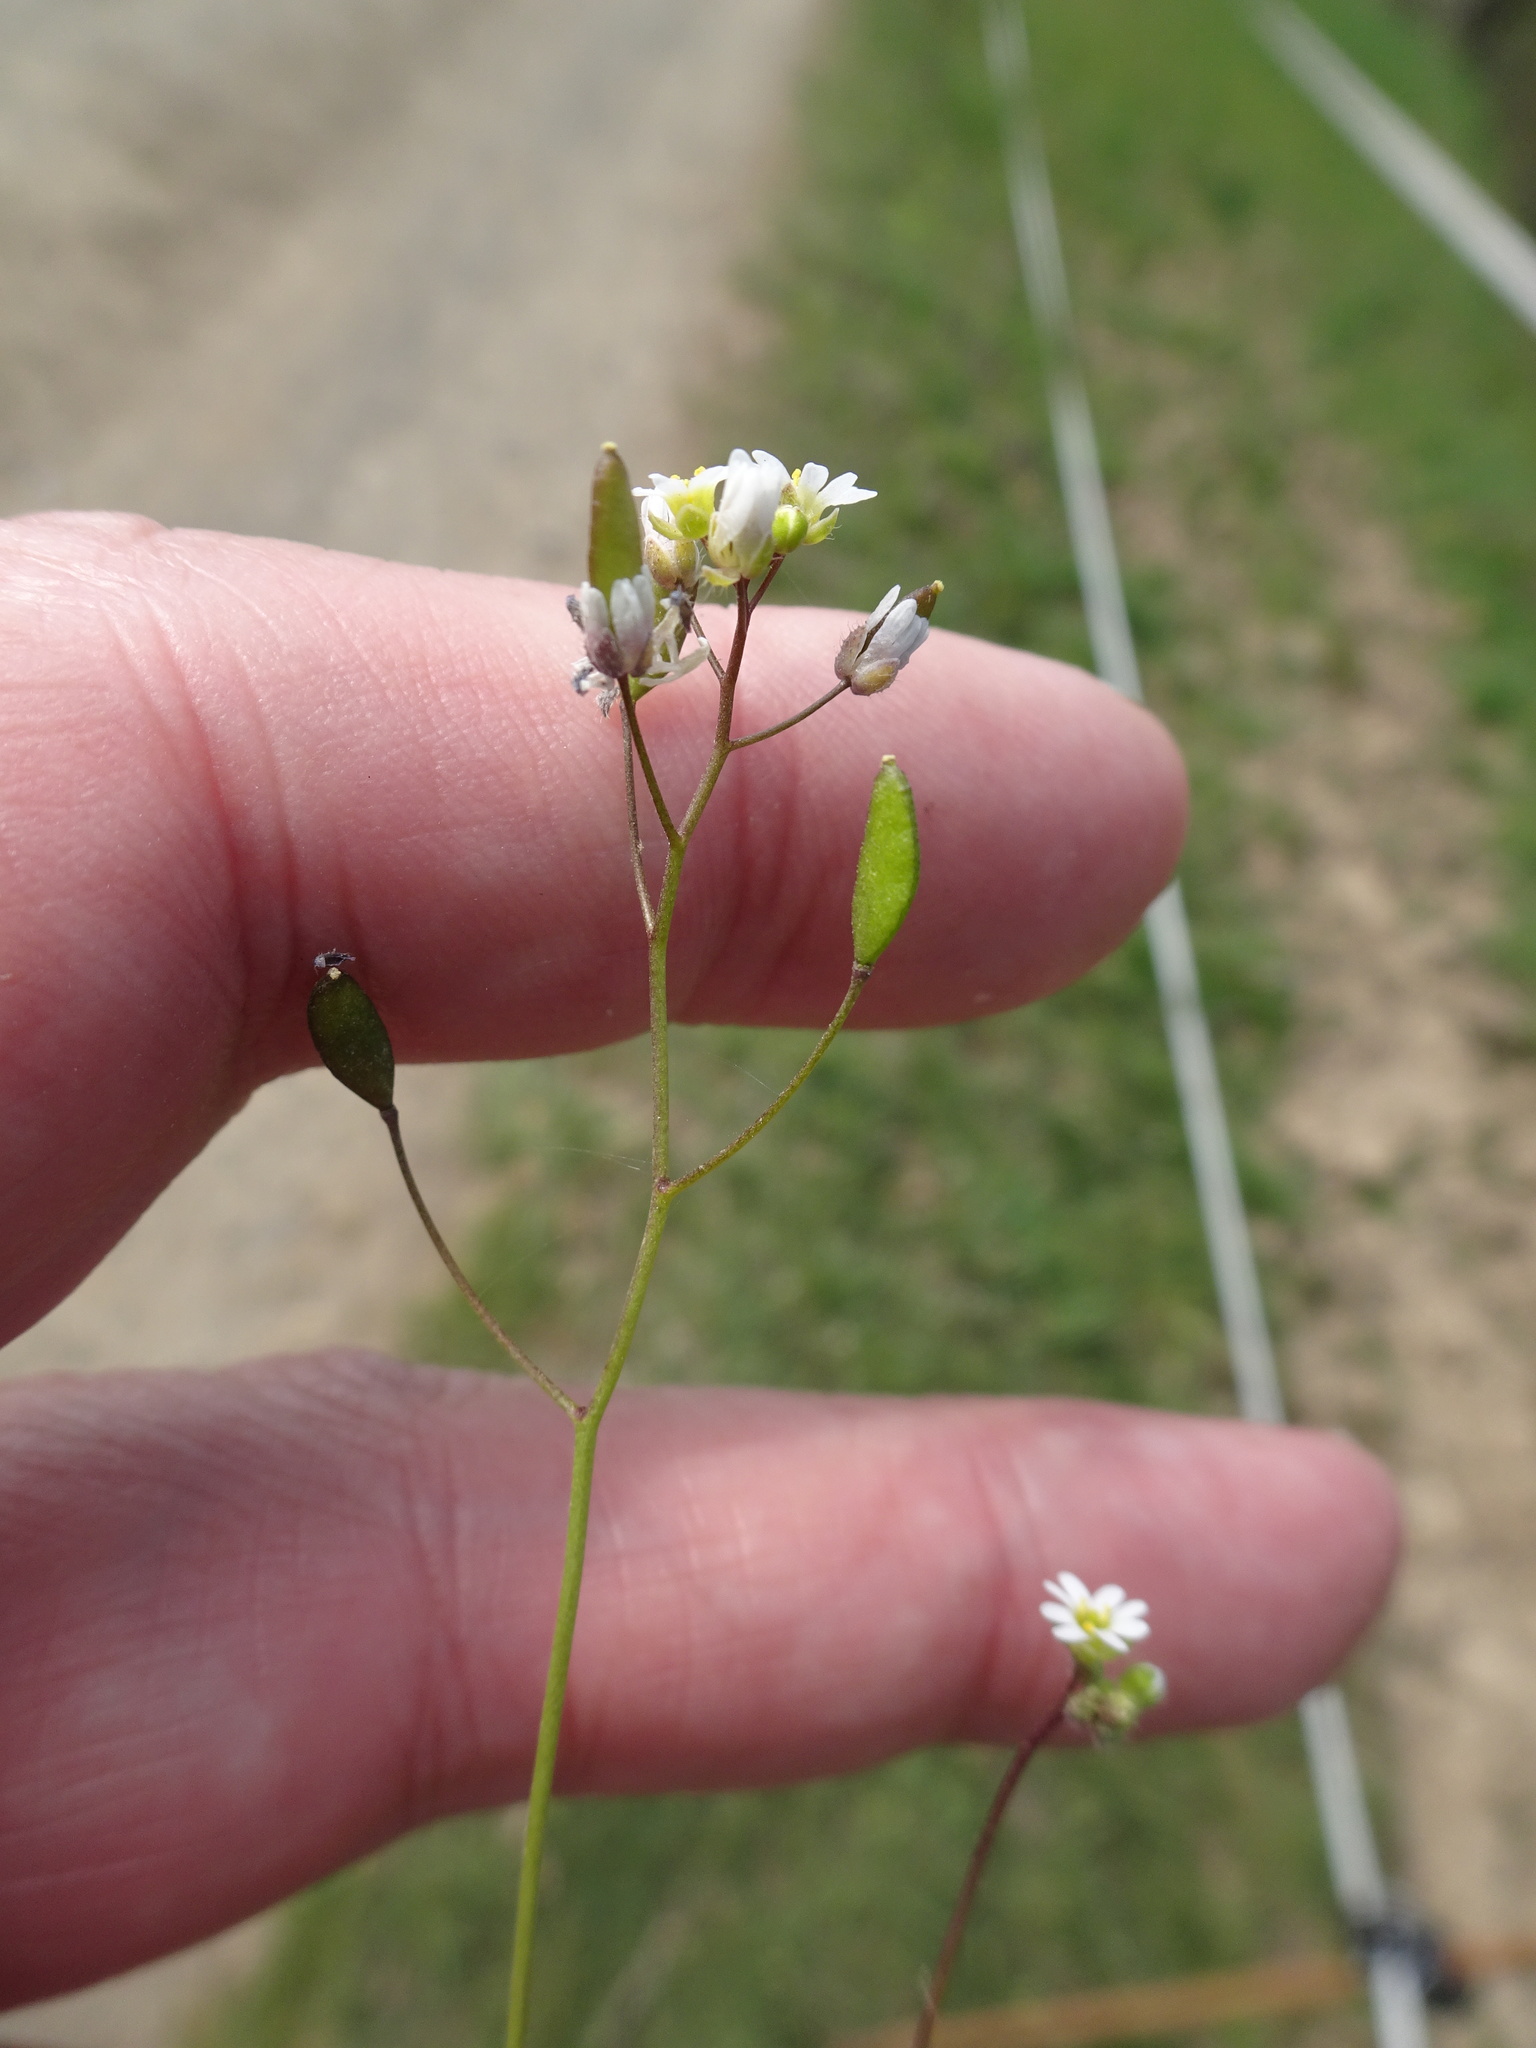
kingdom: Plantae
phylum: Tracheophyta
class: Magnoliopsida
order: Brassicales
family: Brassicaceae
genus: Draba
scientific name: Draba verna
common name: Spring draba
